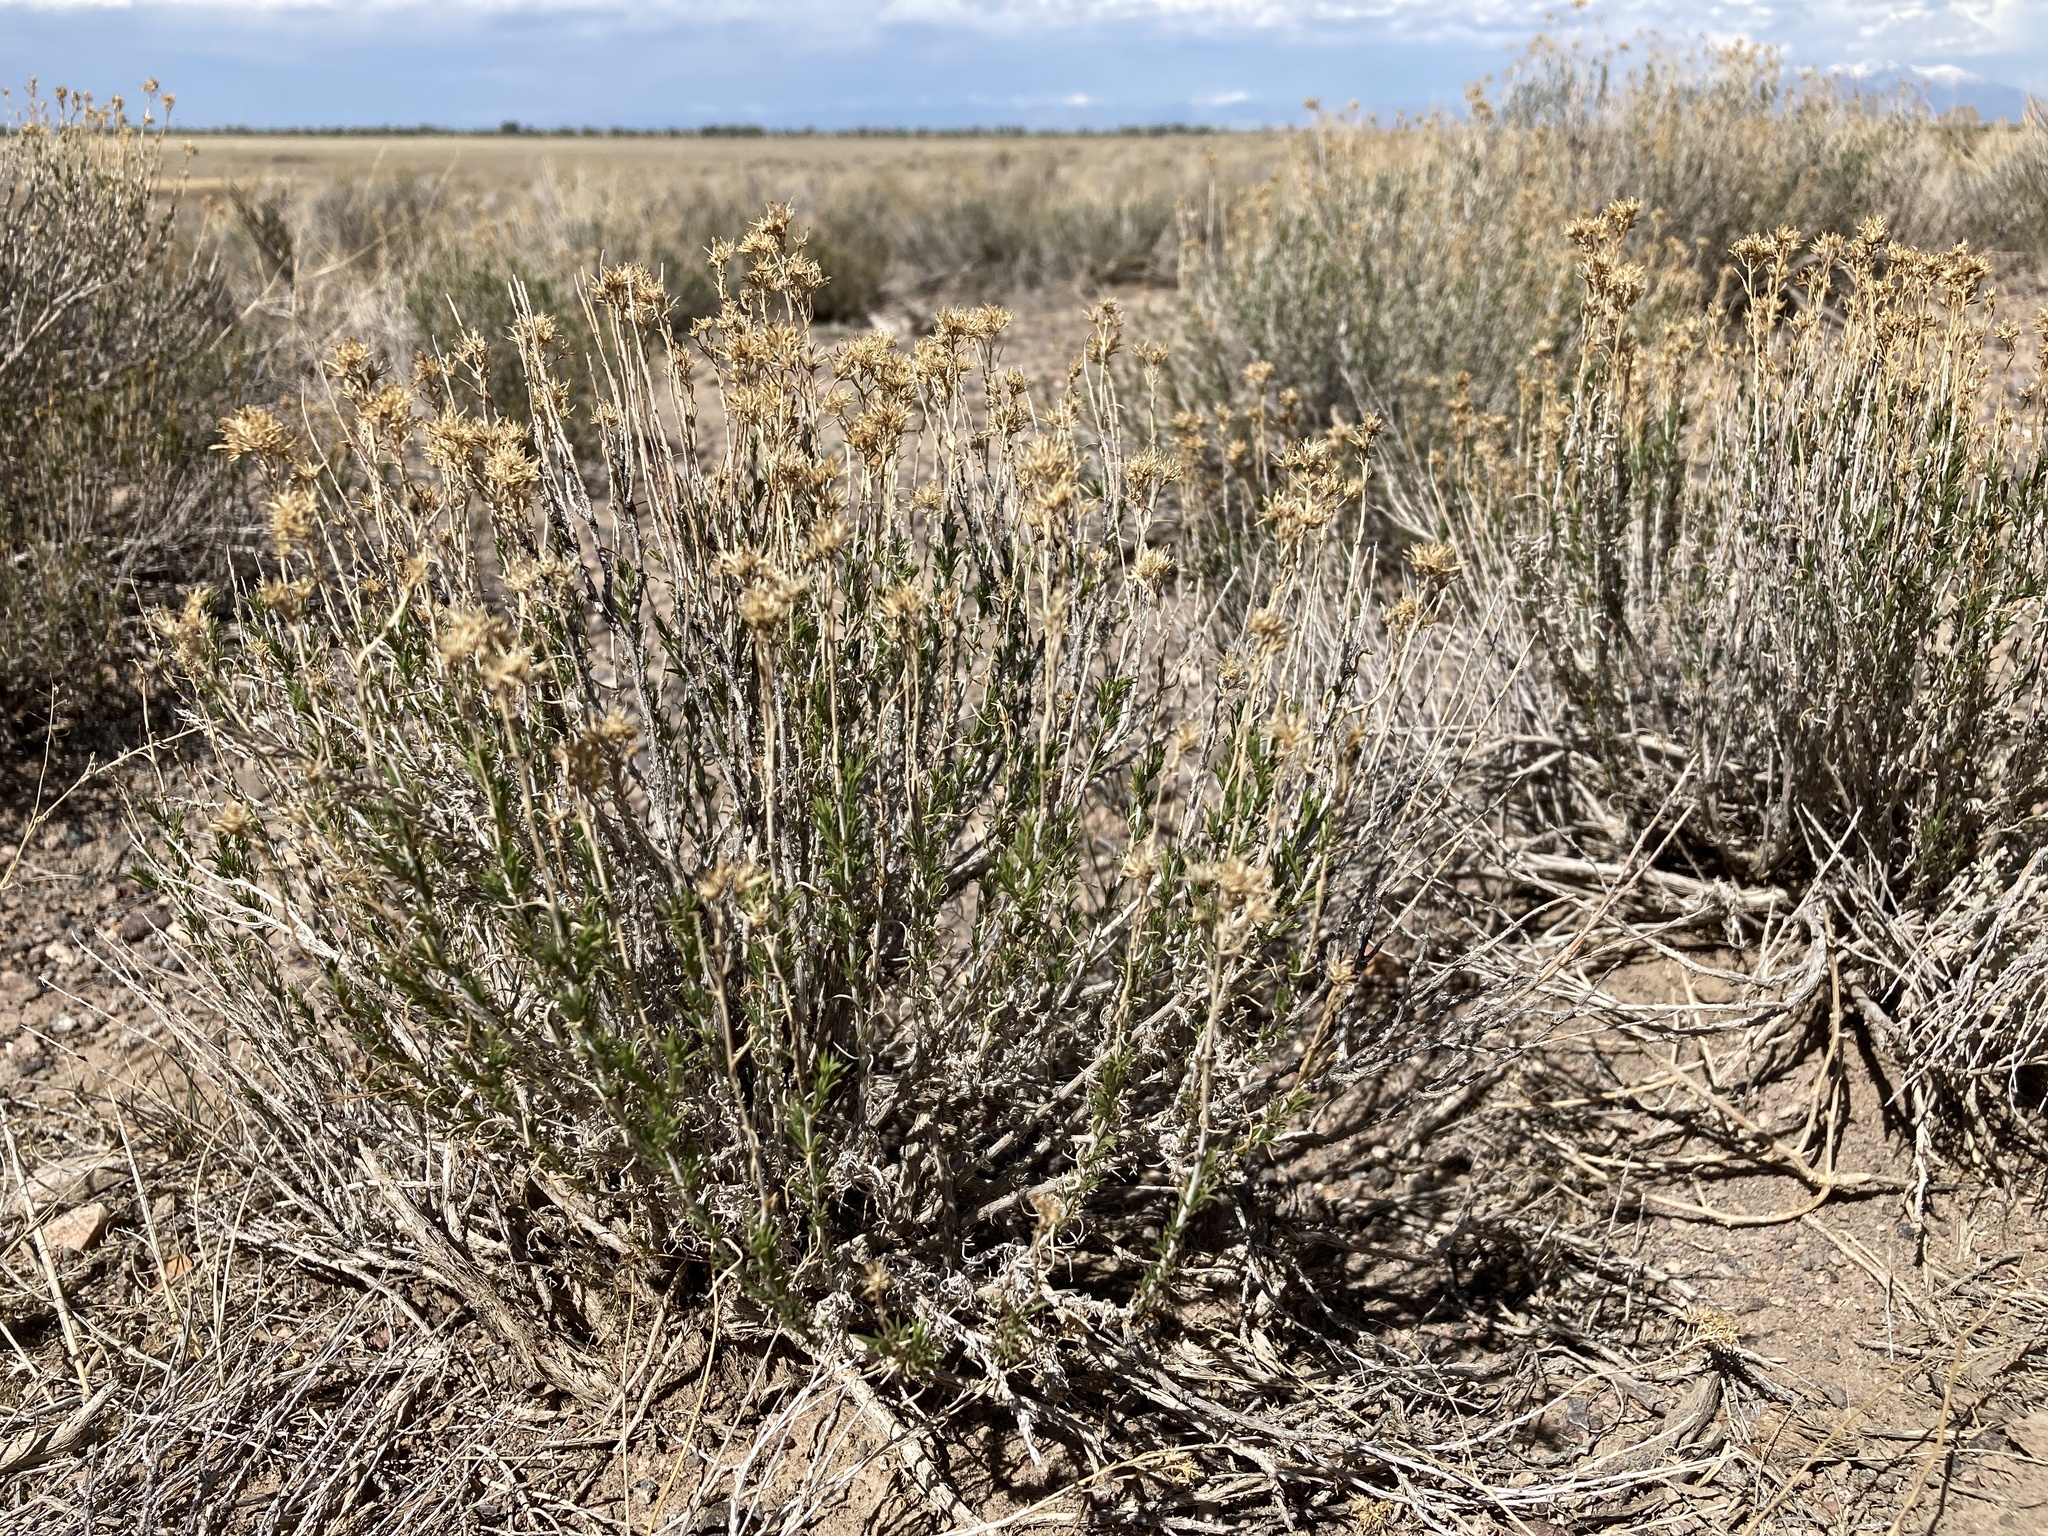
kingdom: Plantae
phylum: Tracheophyta
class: Magnoliopsida
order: Asterales
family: Asteraceae
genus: Chrysothamnus
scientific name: Chrysothamnus greenei
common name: Greene's rabbitbrush
